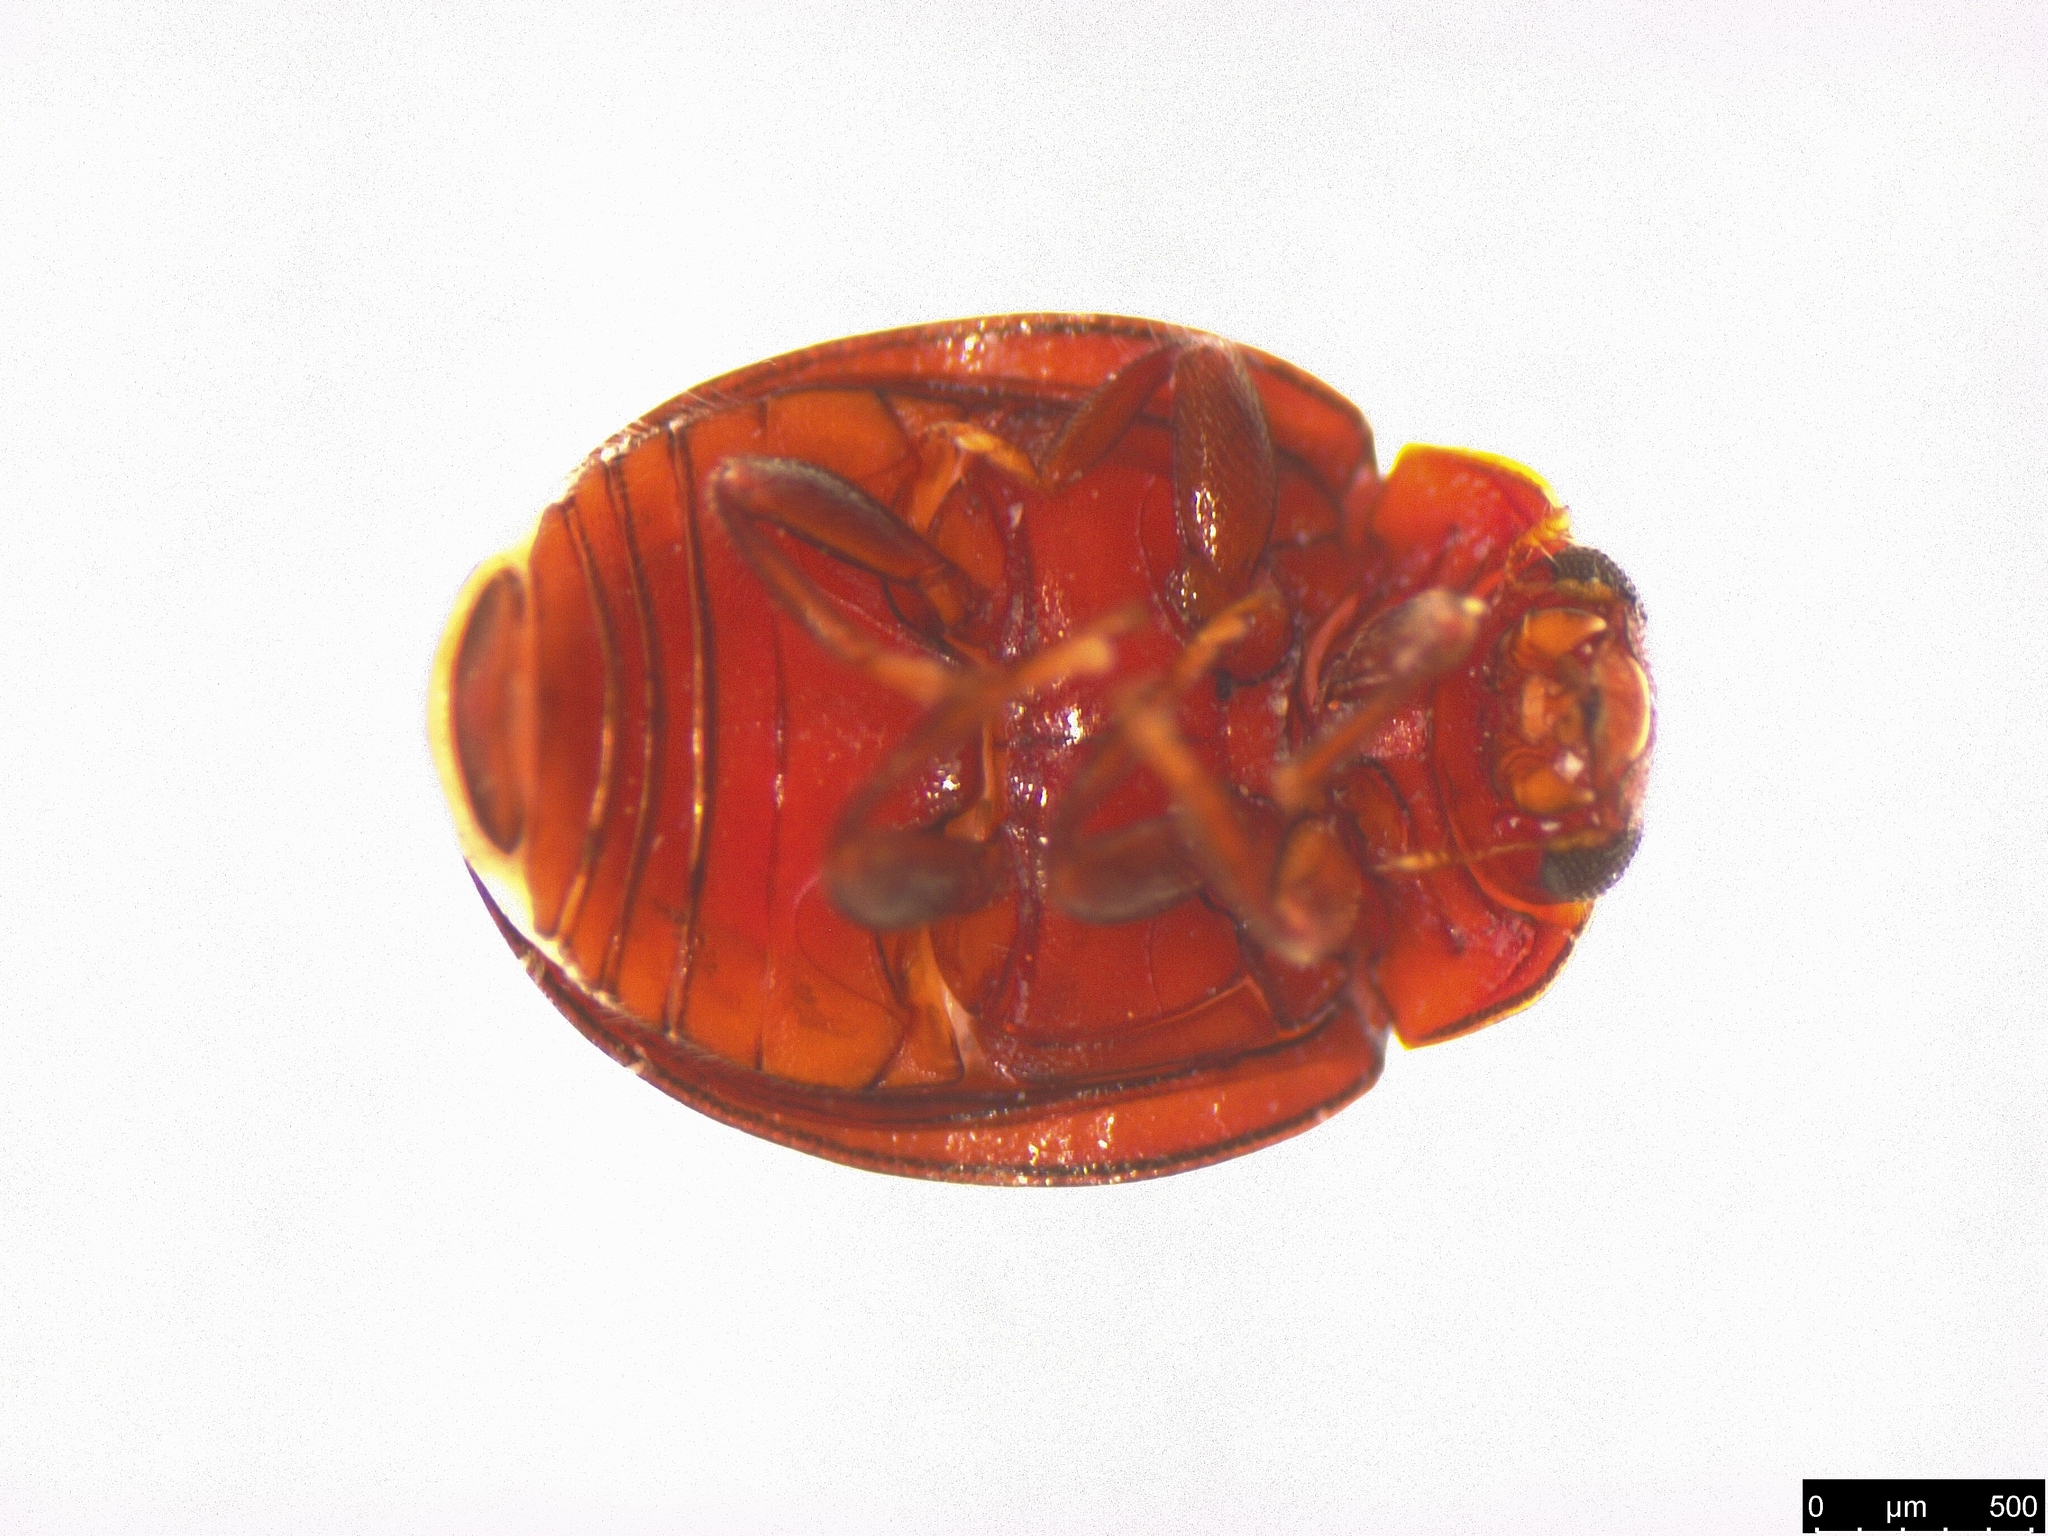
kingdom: Animalia
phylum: Arthropoda
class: Insecta
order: Coleoptera
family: Coccinellidae
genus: Rhyzobius
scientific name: Rhyzobius lophanthae
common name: Scale-eating ladybird beetle
